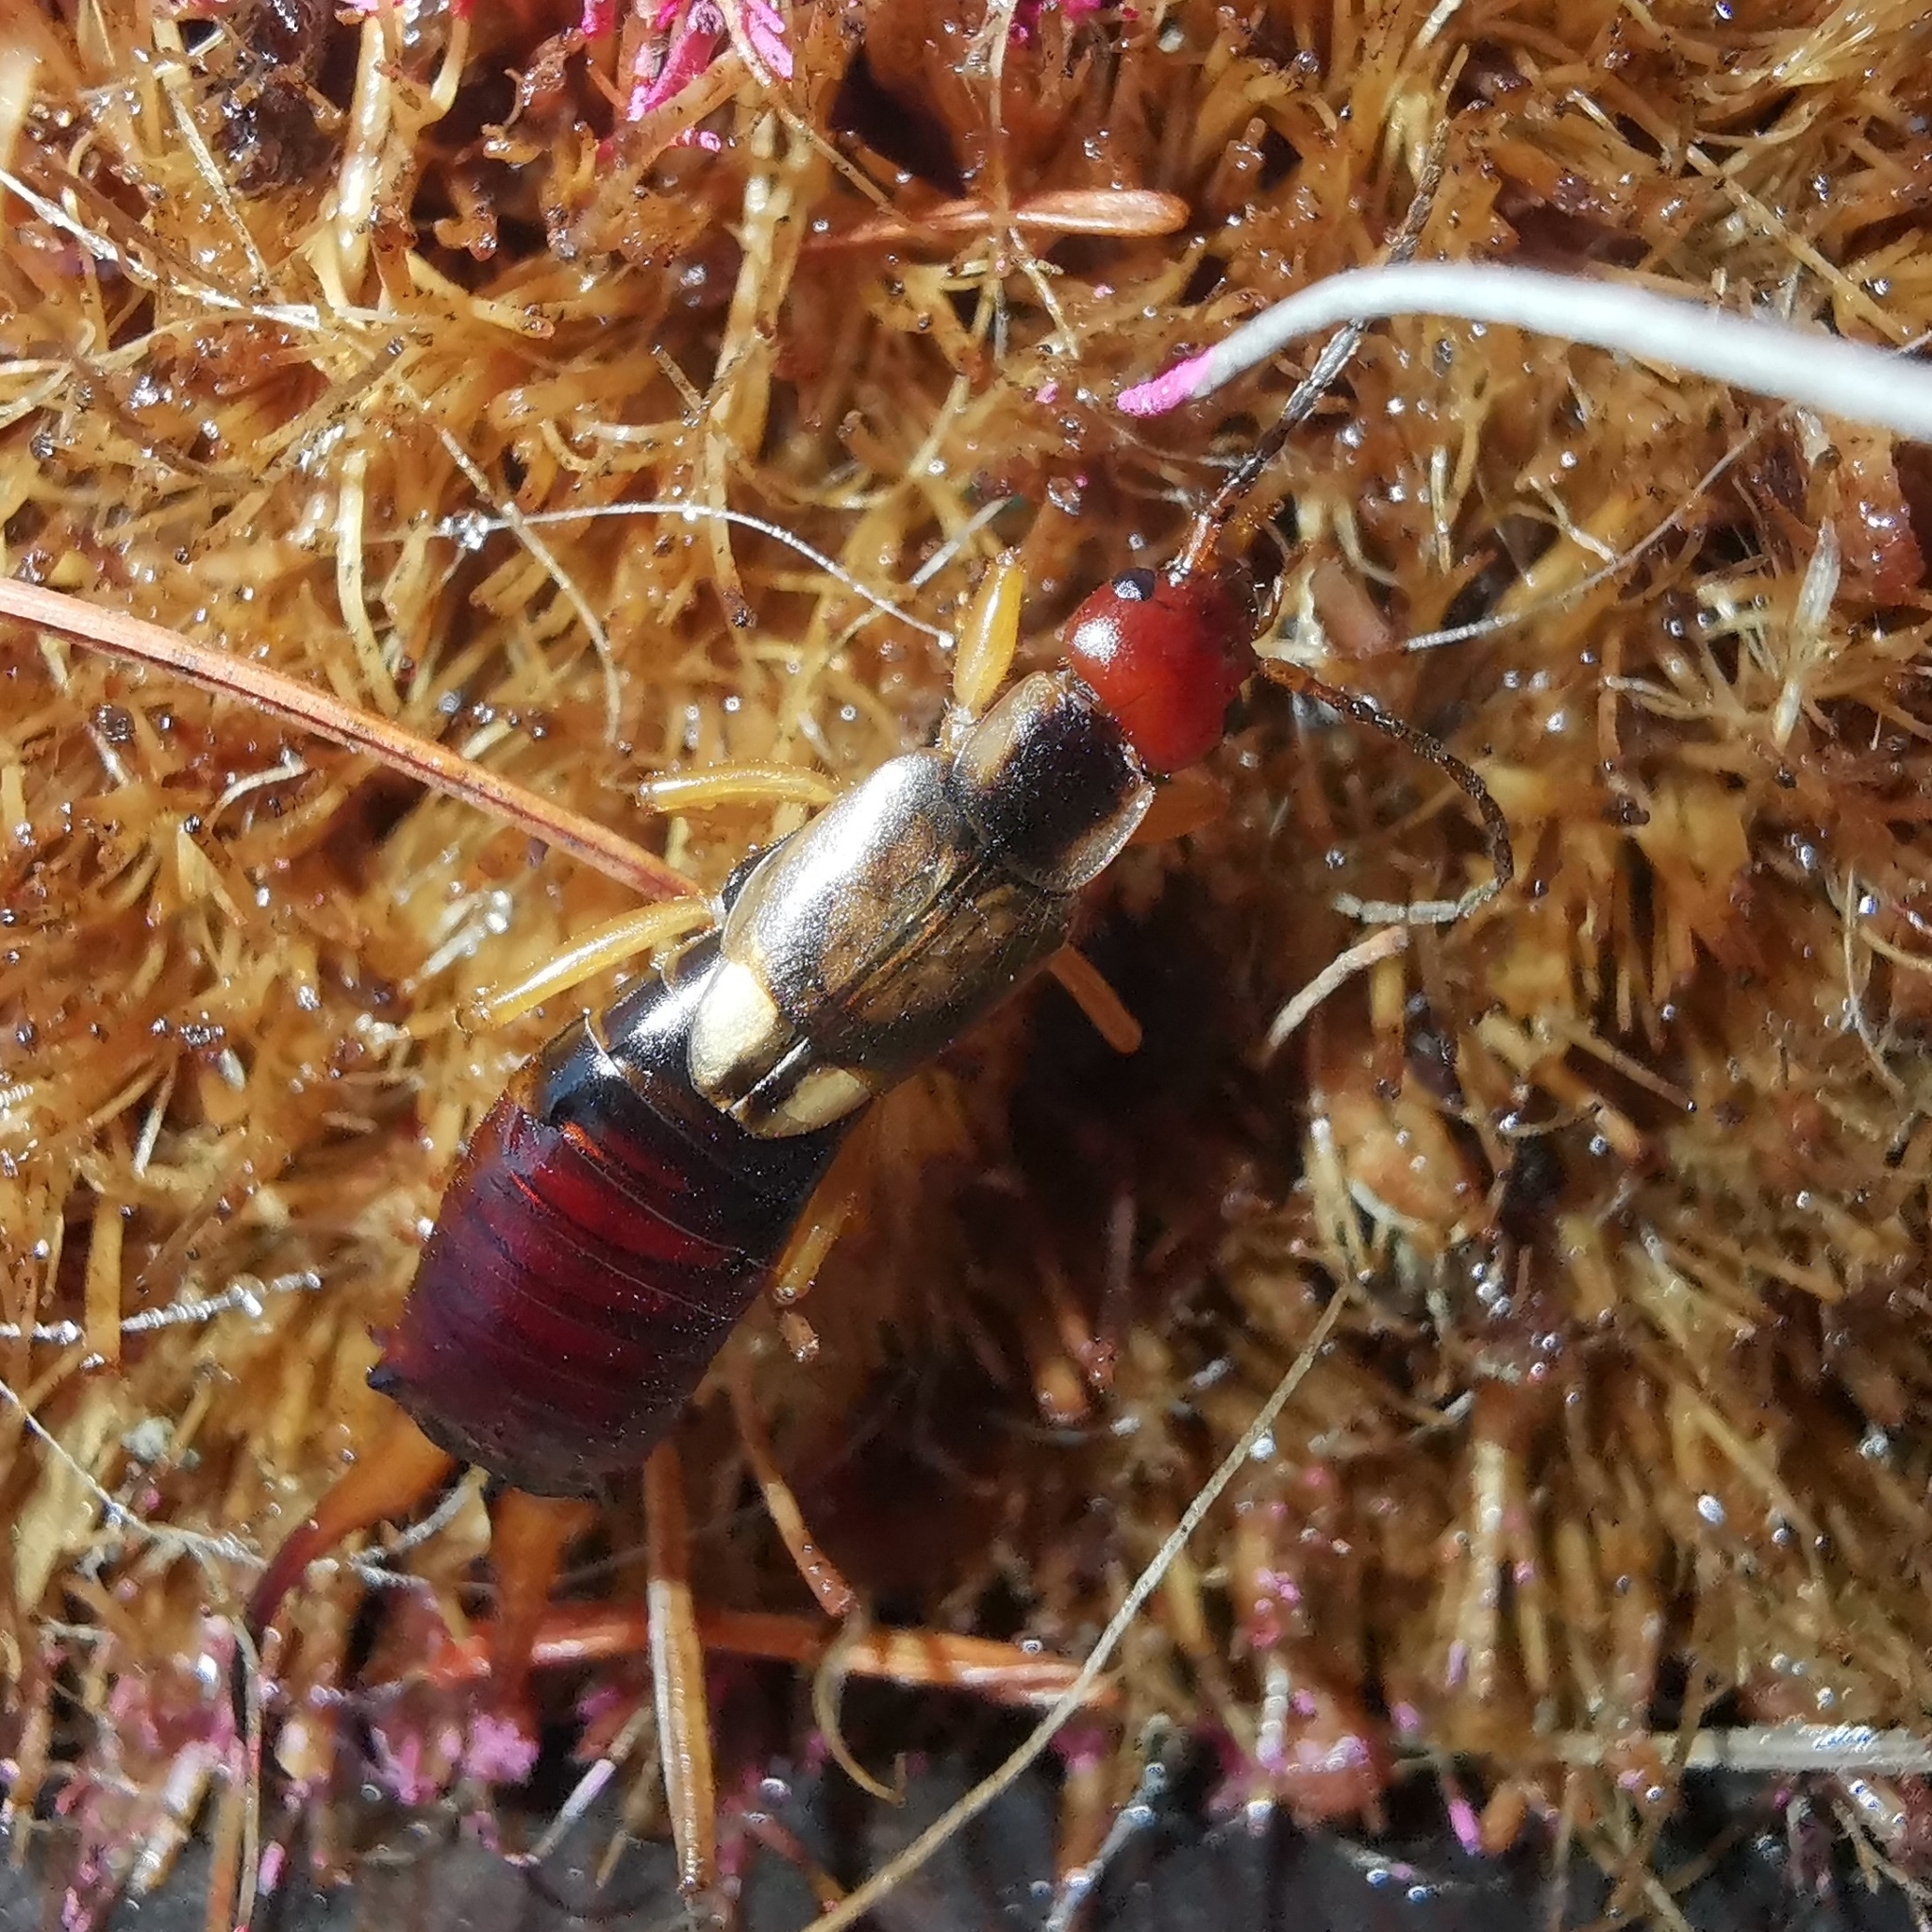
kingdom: Animalia
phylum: Arthropoda
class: Insecta
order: Dermaptera
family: Forficulidae
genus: Forficula
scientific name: Forficula
